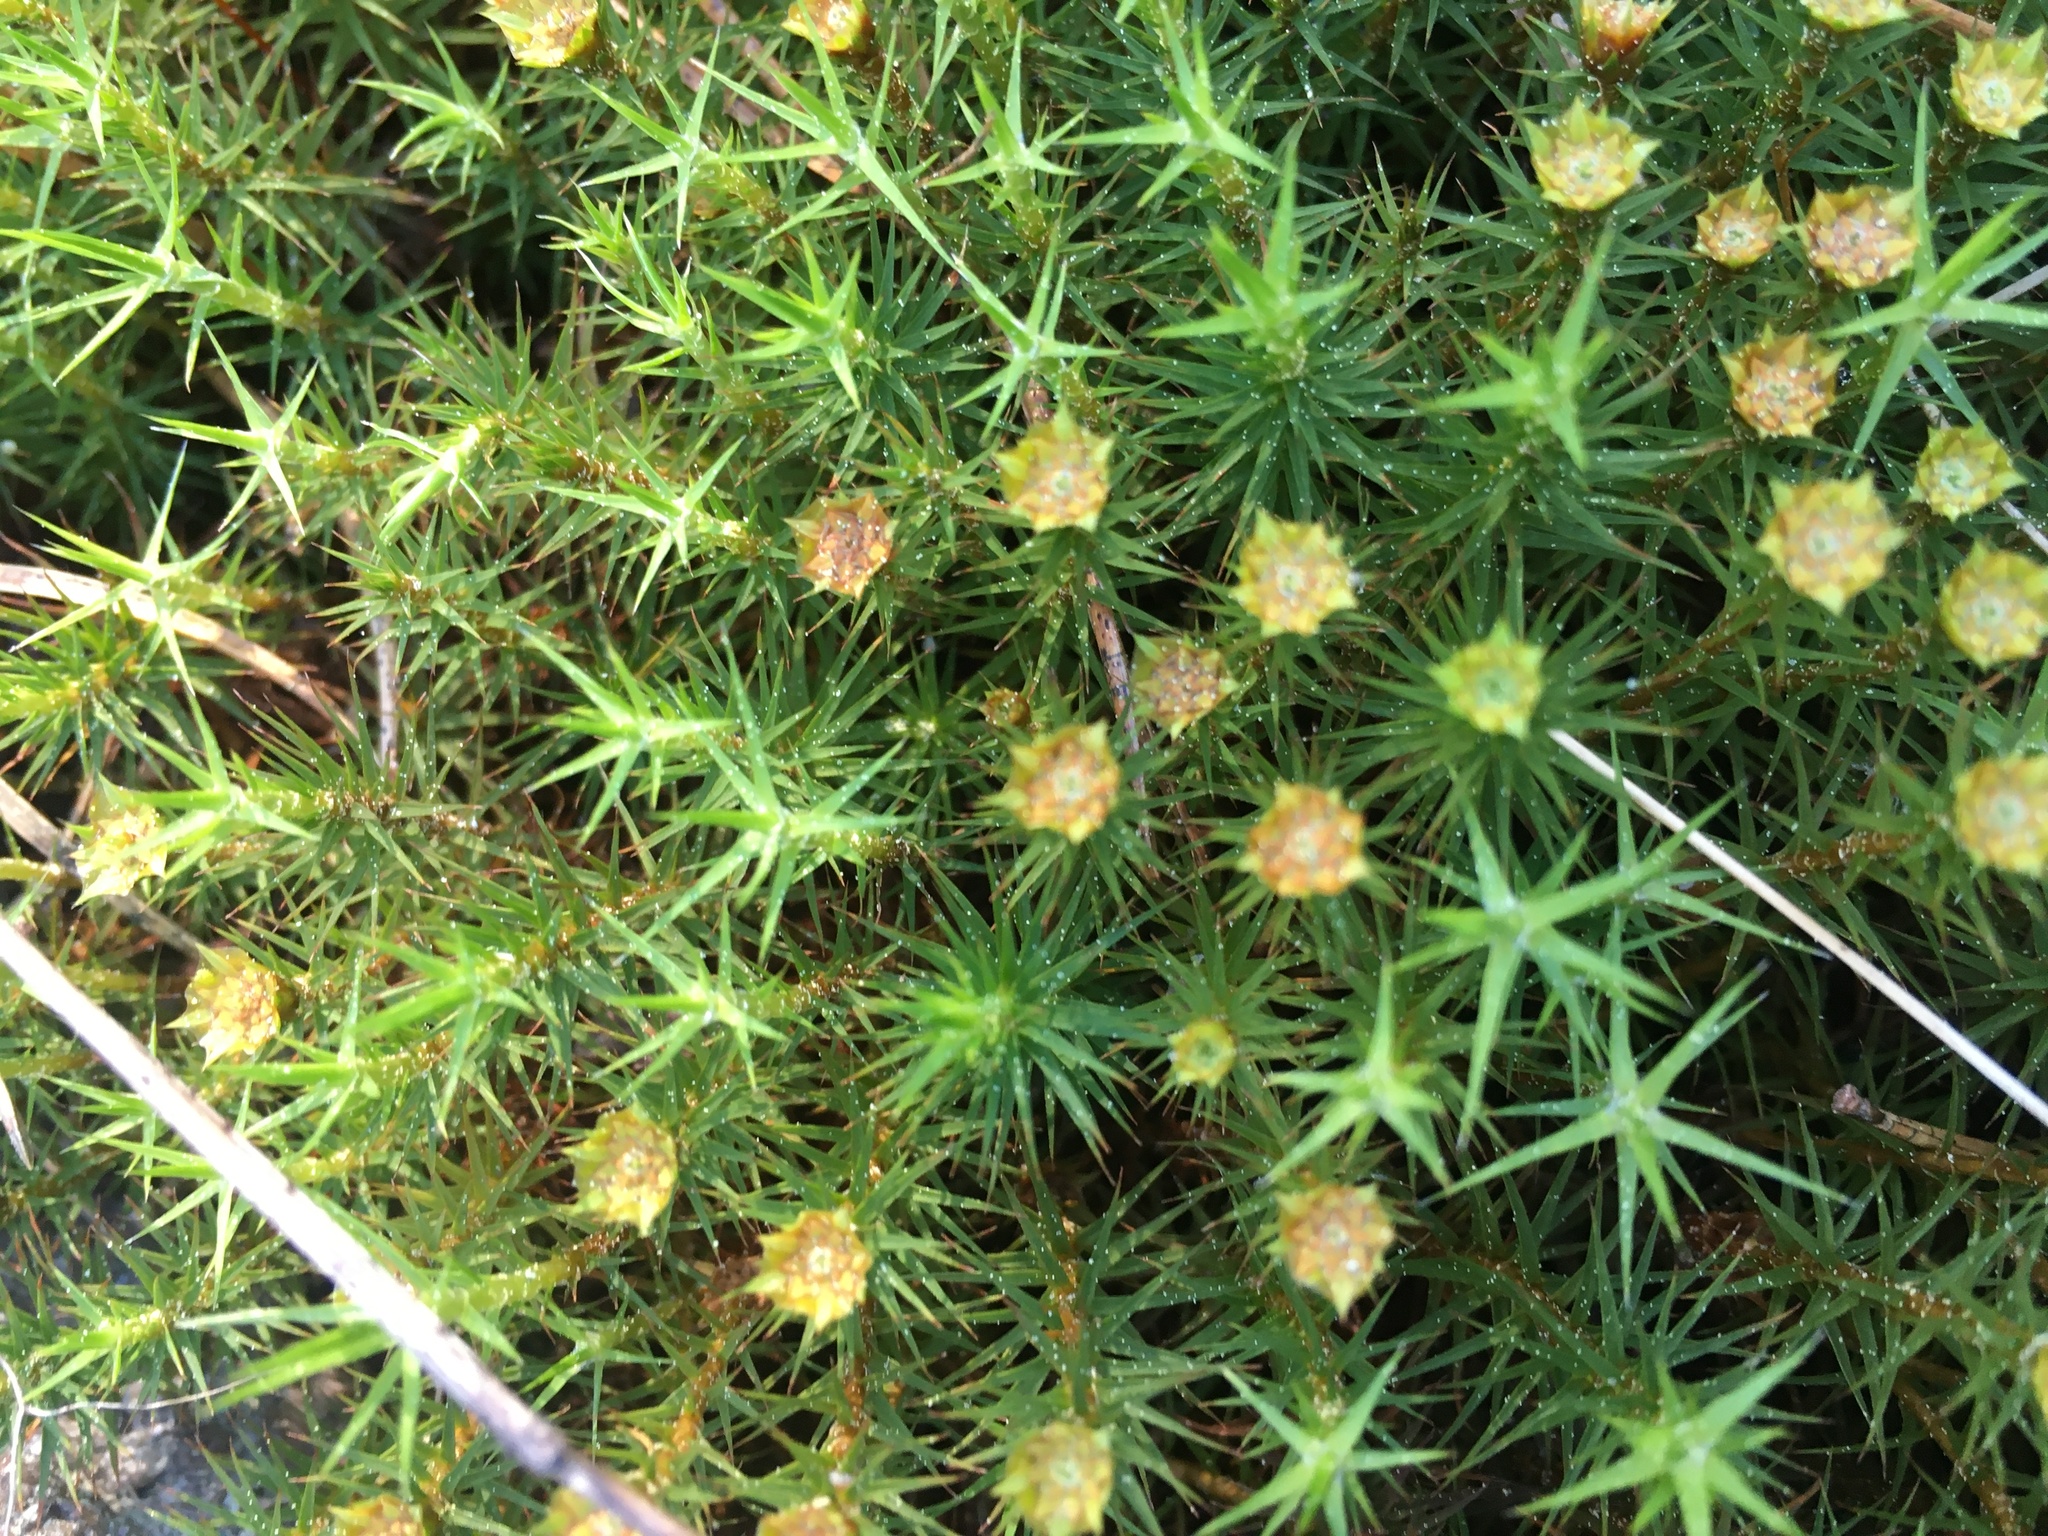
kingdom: Plantae
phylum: Bryophyta
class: Polytrichopsida
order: Polytrichales
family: Polytrichaceae
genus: Polytrichum
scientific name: Polytrichum commune
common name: Common haircap
